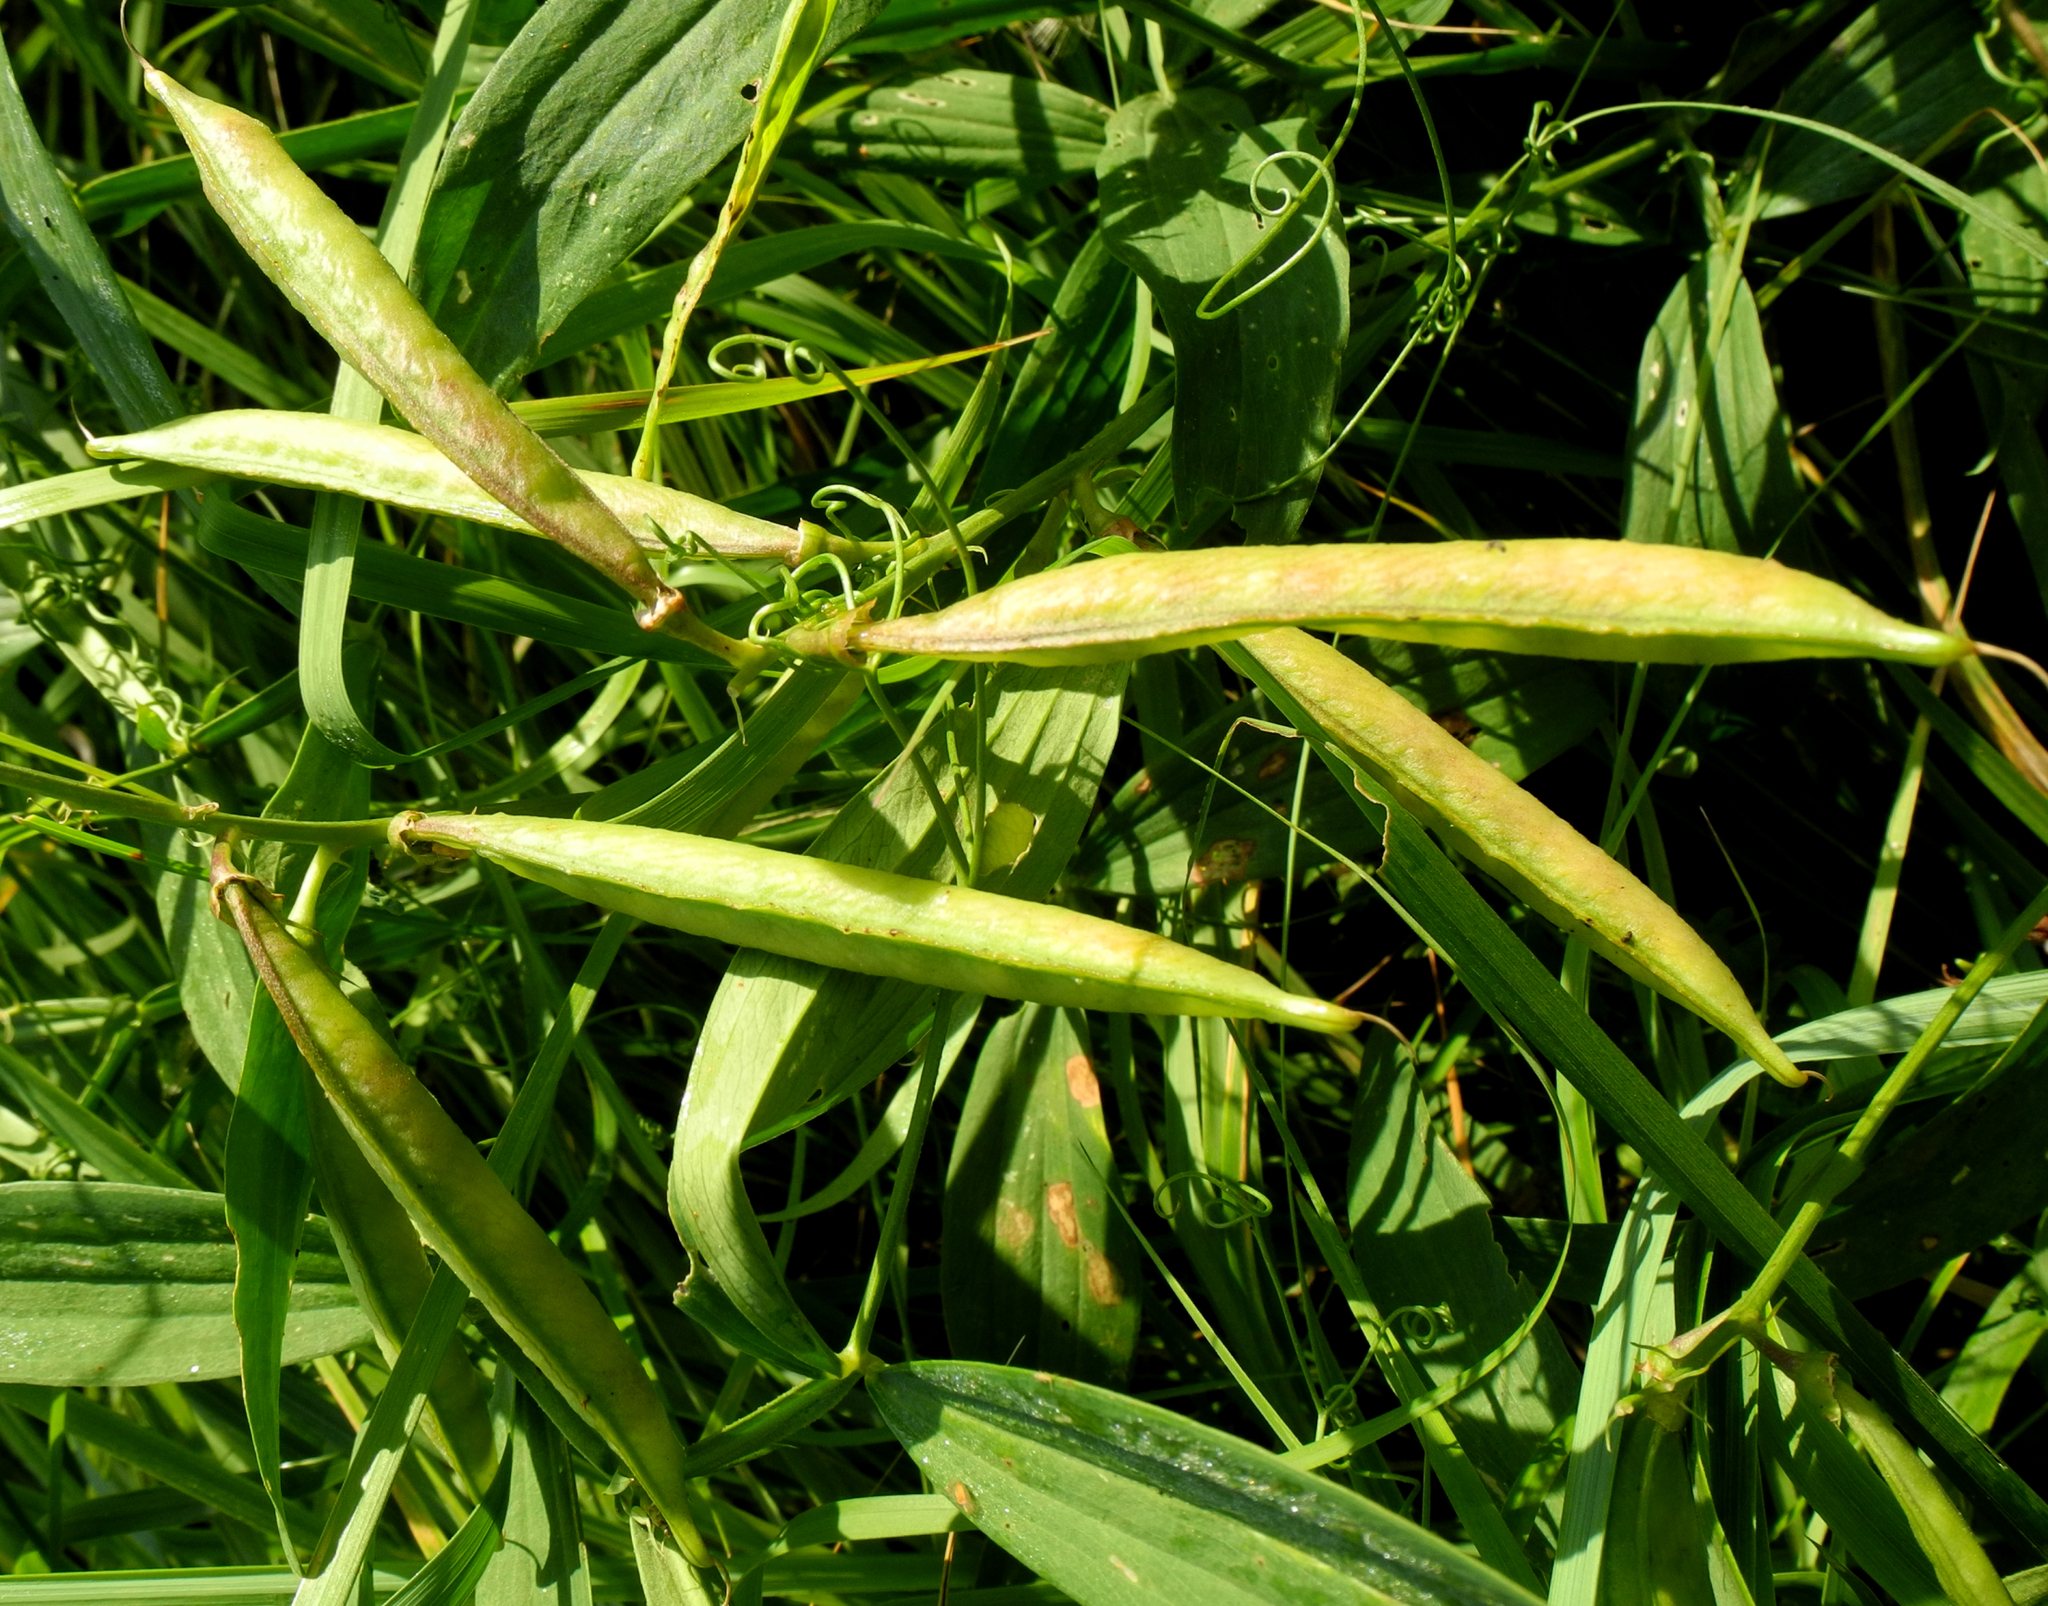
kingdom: Plantae
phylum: Tracheophyta
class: Magnoliopsida
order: Fabales
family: Fabaceae
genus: Lathyrus
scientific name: Lathyrus sylvestris
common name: Flat pea
